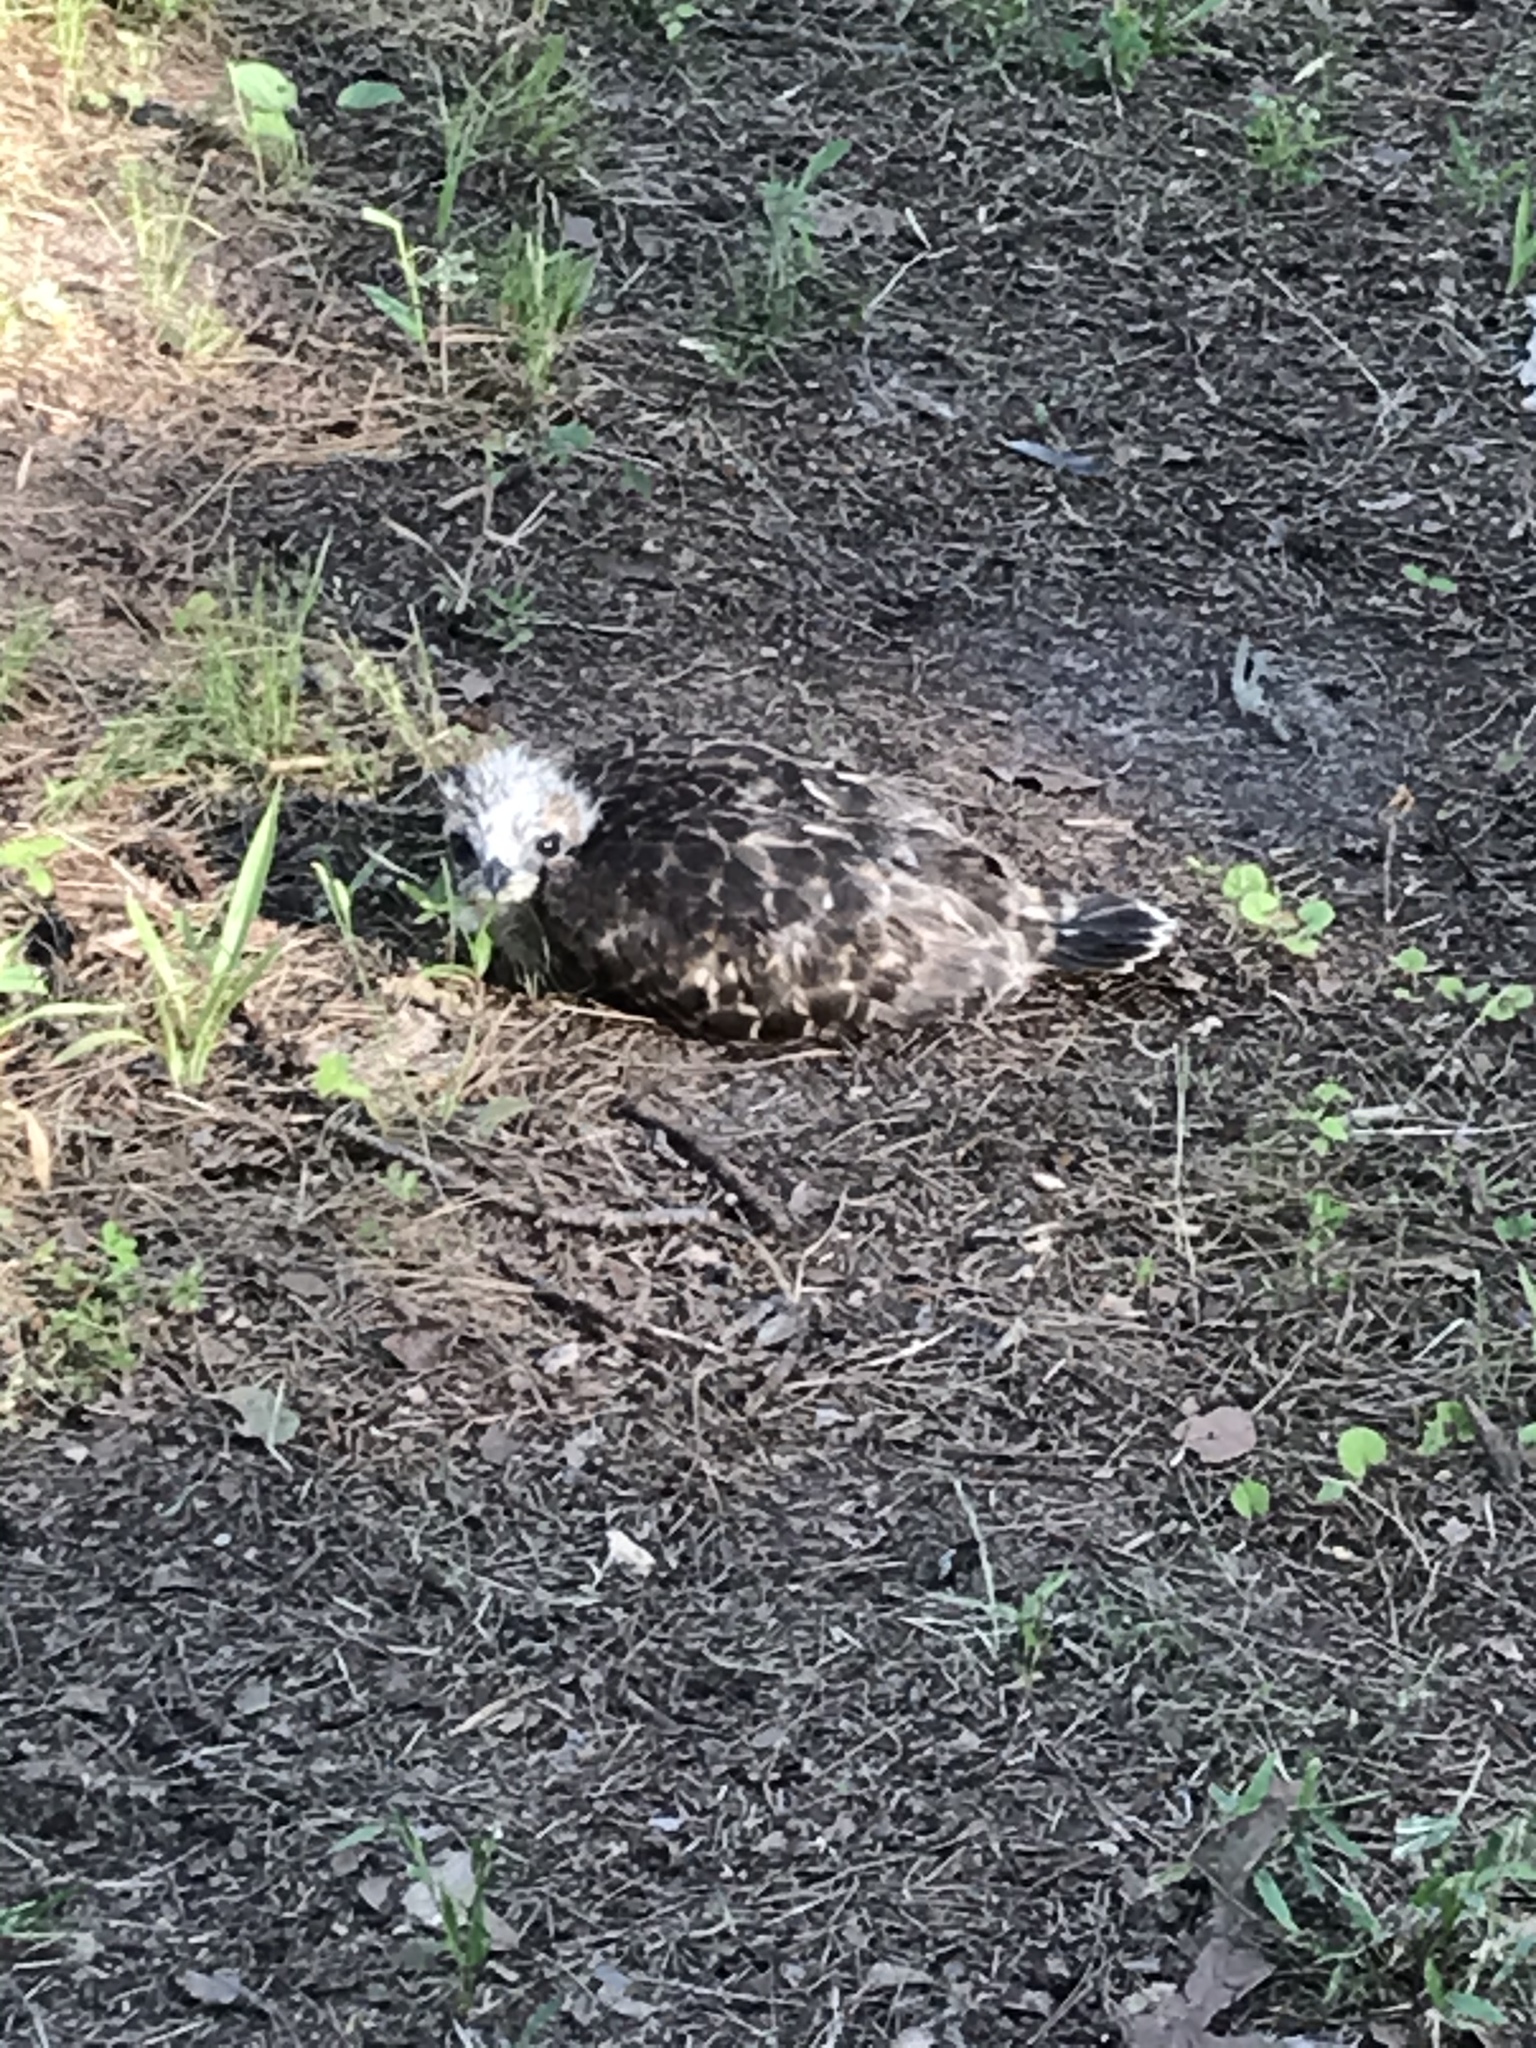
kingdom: Animalia
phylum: Chordata
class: Aves
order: Accipitriformes
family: Accipitridae
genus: Buteo
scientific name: Buteo lineatus
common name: Red-shouldered hawk
